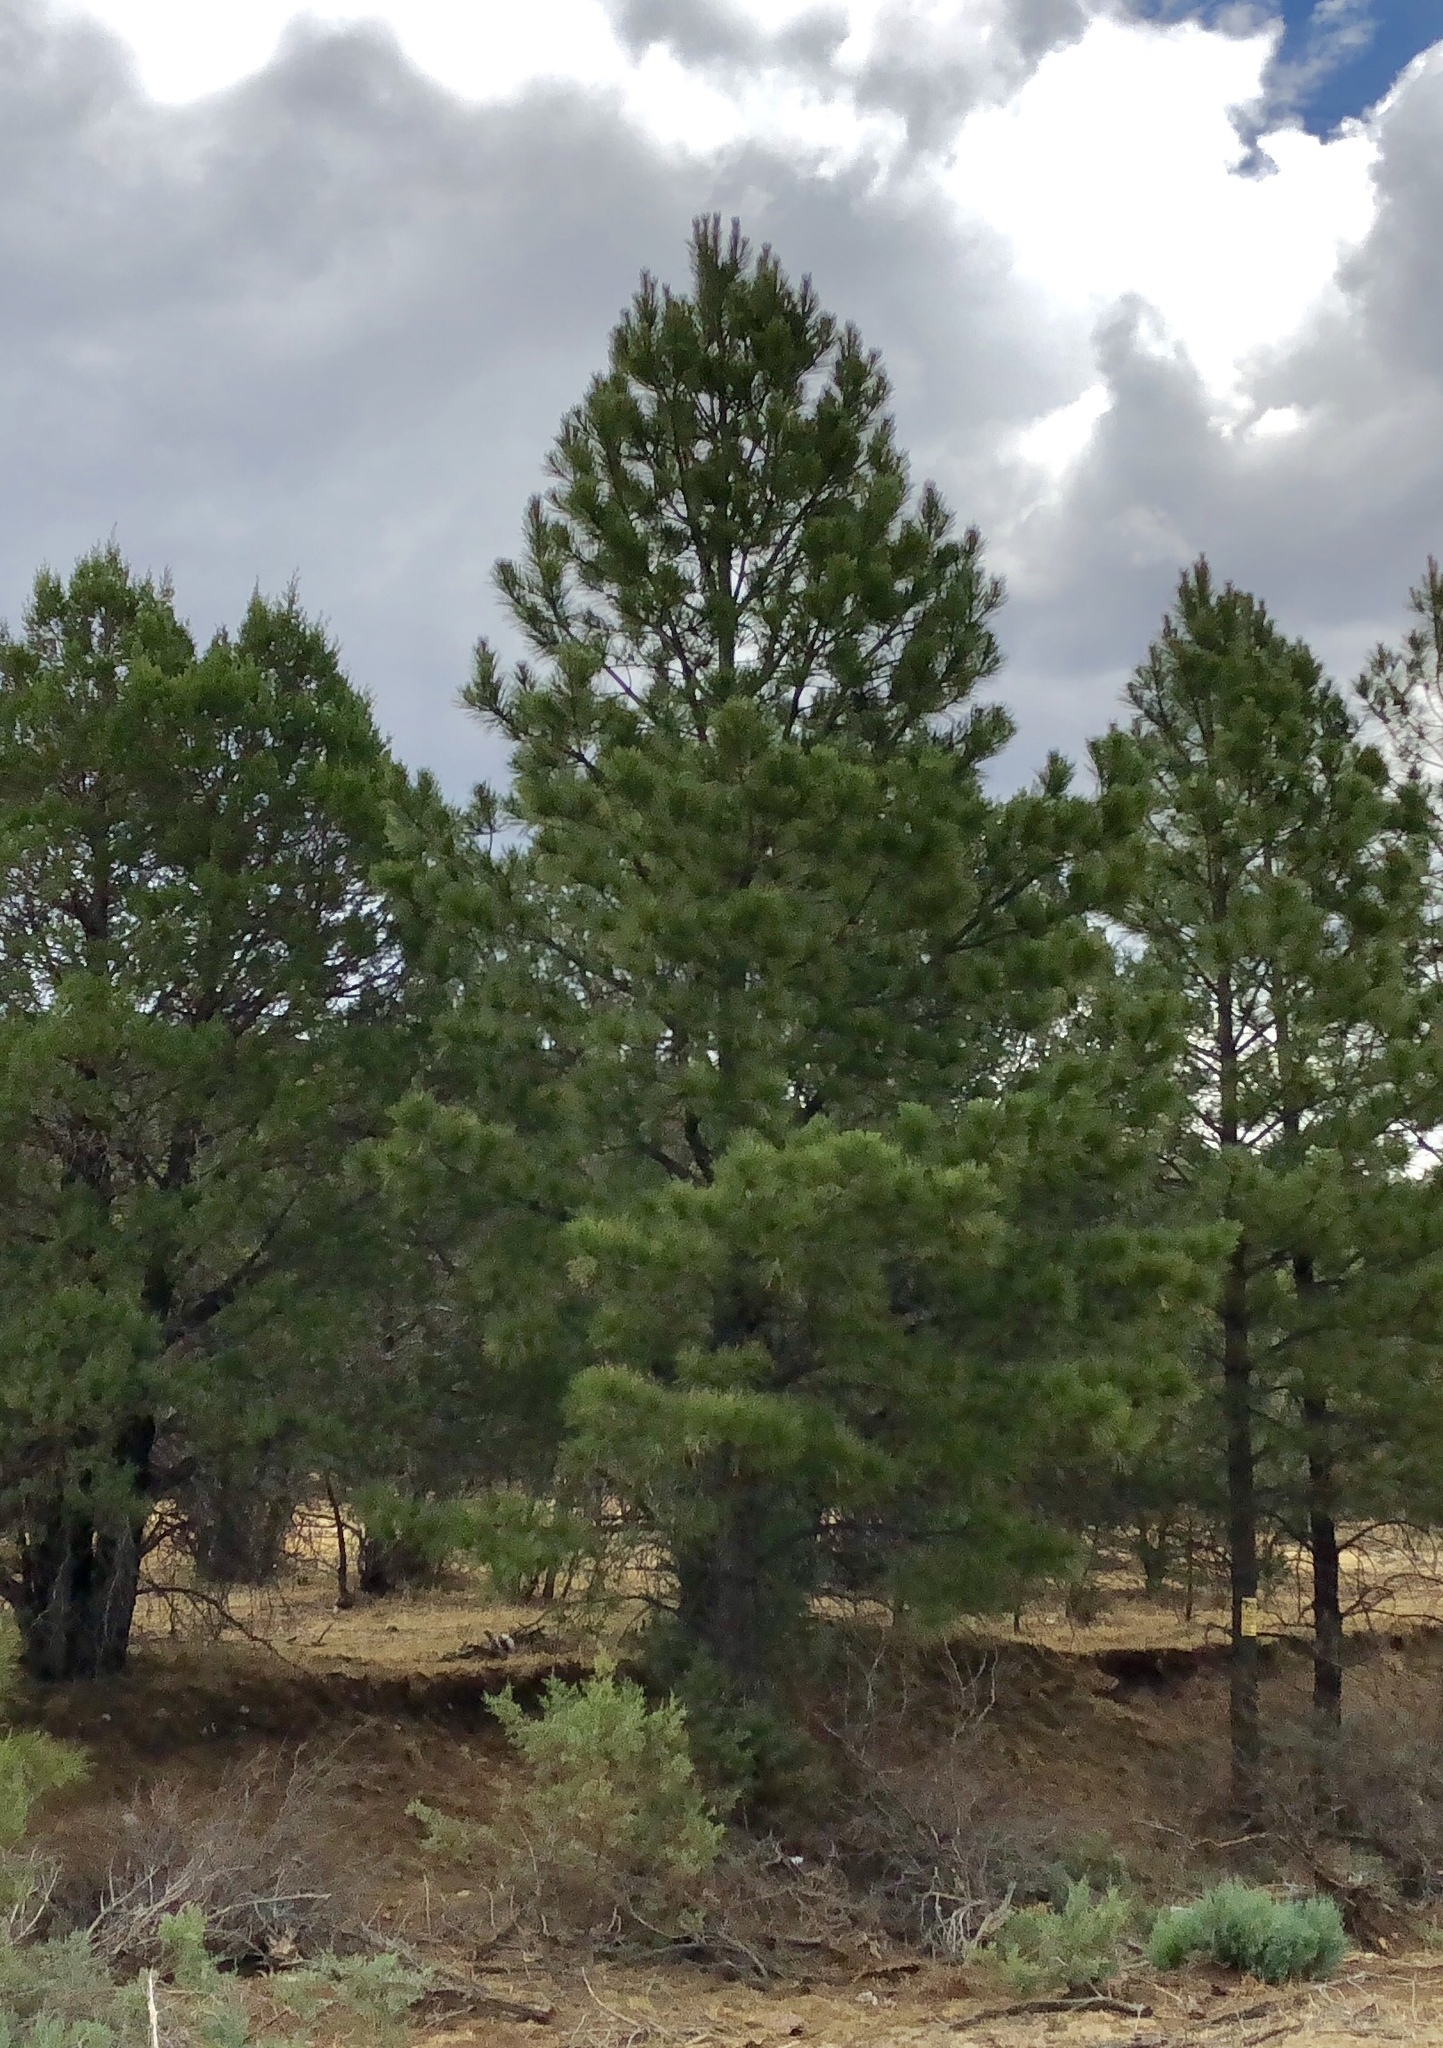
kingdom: Plantae
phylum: Tracheophyta
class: Pinopsida
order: Pinales
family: Pinaceae
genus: Pinus
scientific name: Pinus ponderosa
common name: Western yellow-pine
